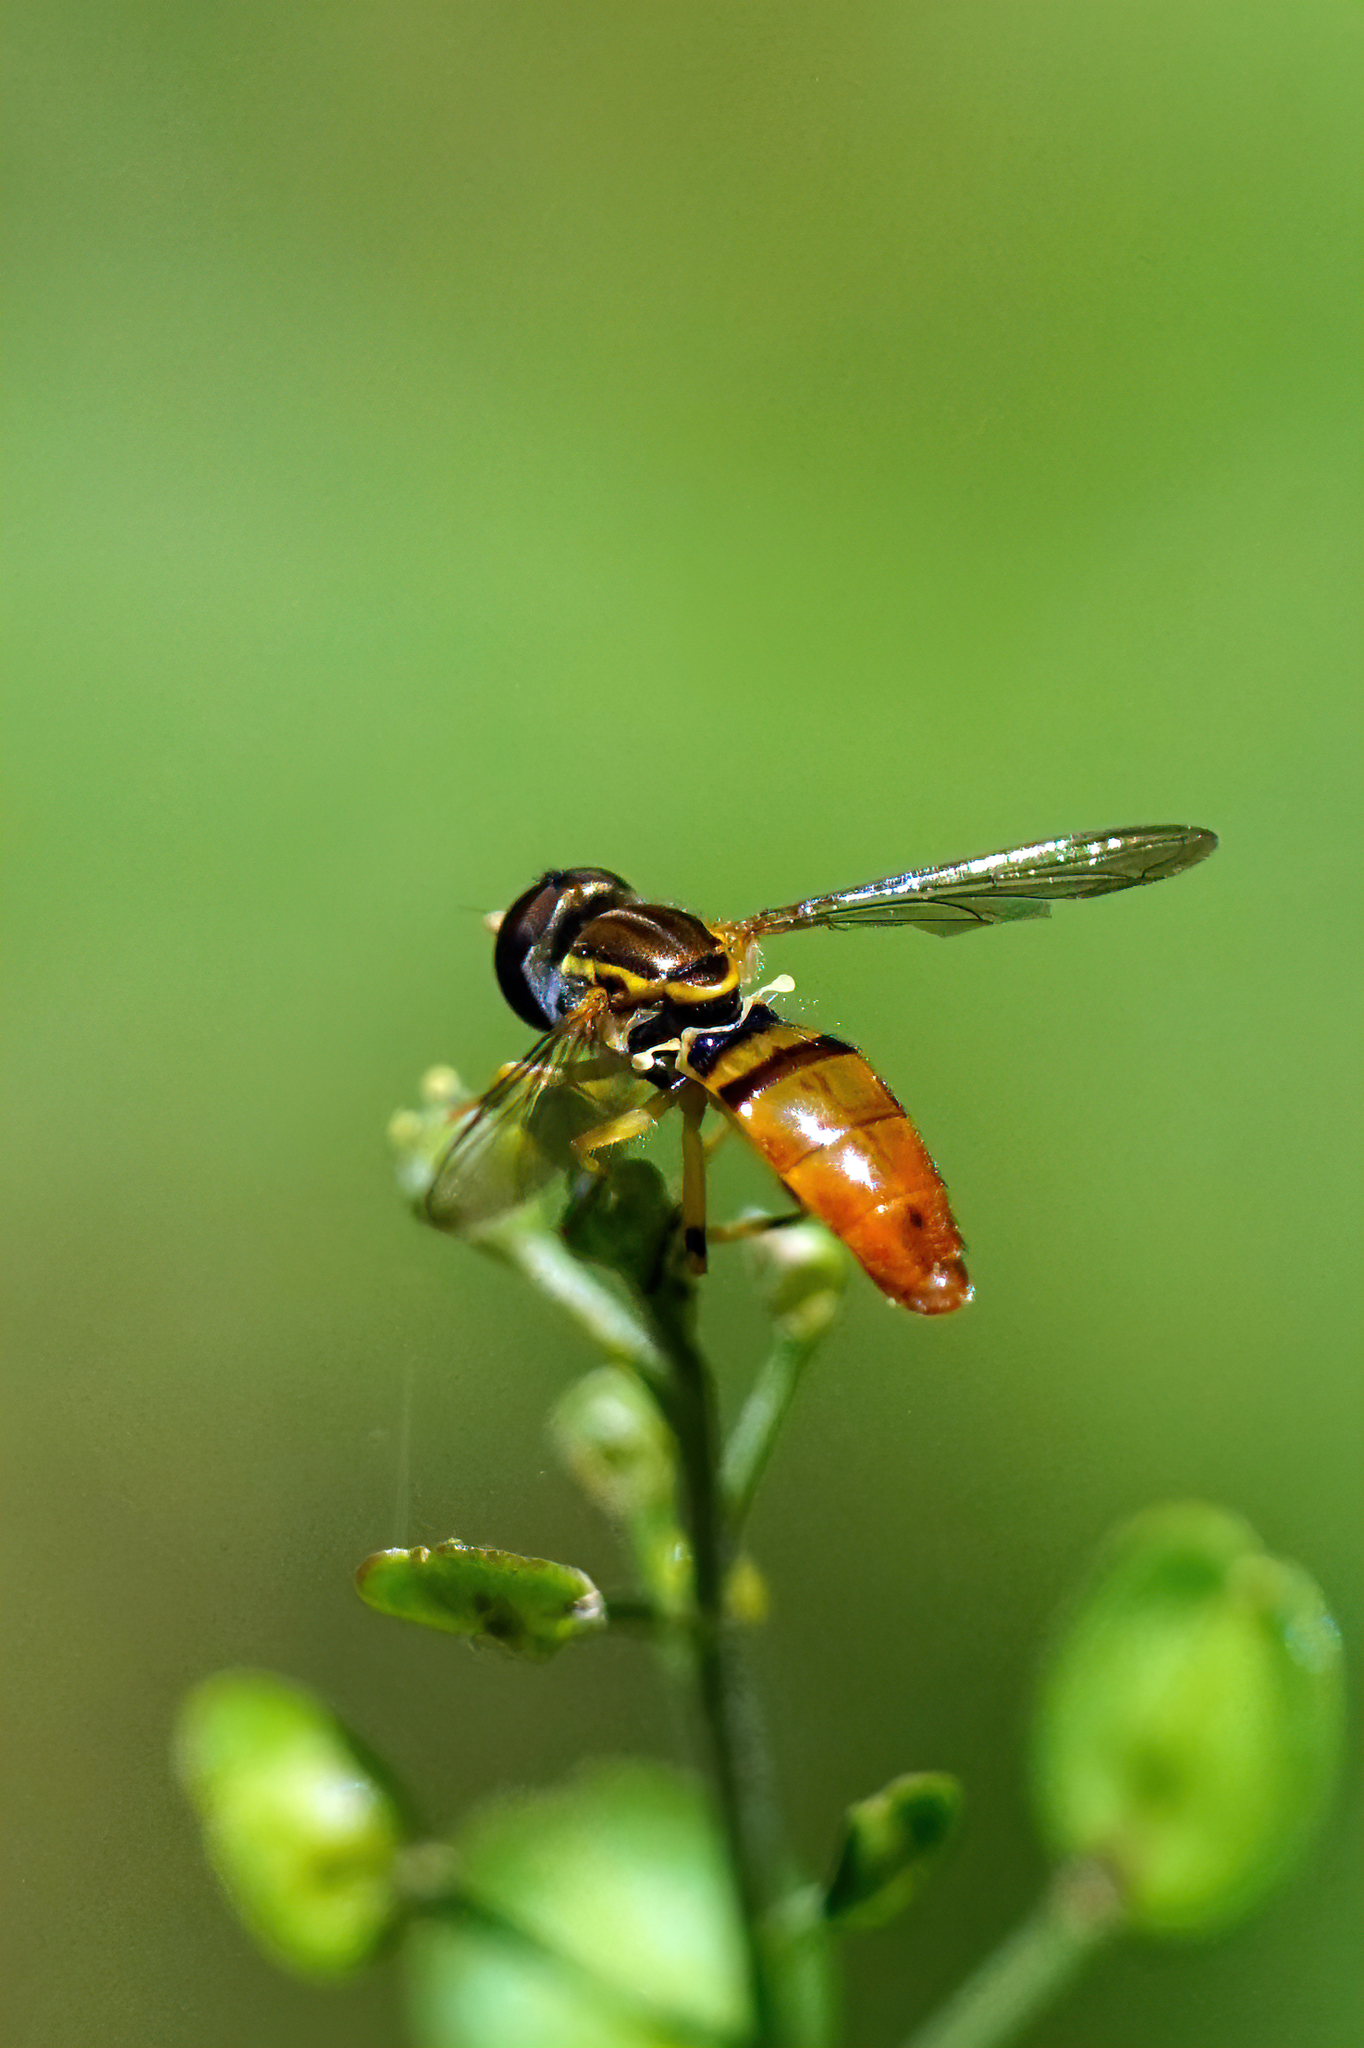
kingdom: Animalia
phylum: Arthropoda
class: Insecta
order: Diptera
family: Syrphidae
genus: Toxomerus
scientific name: Toxomerus floralis
